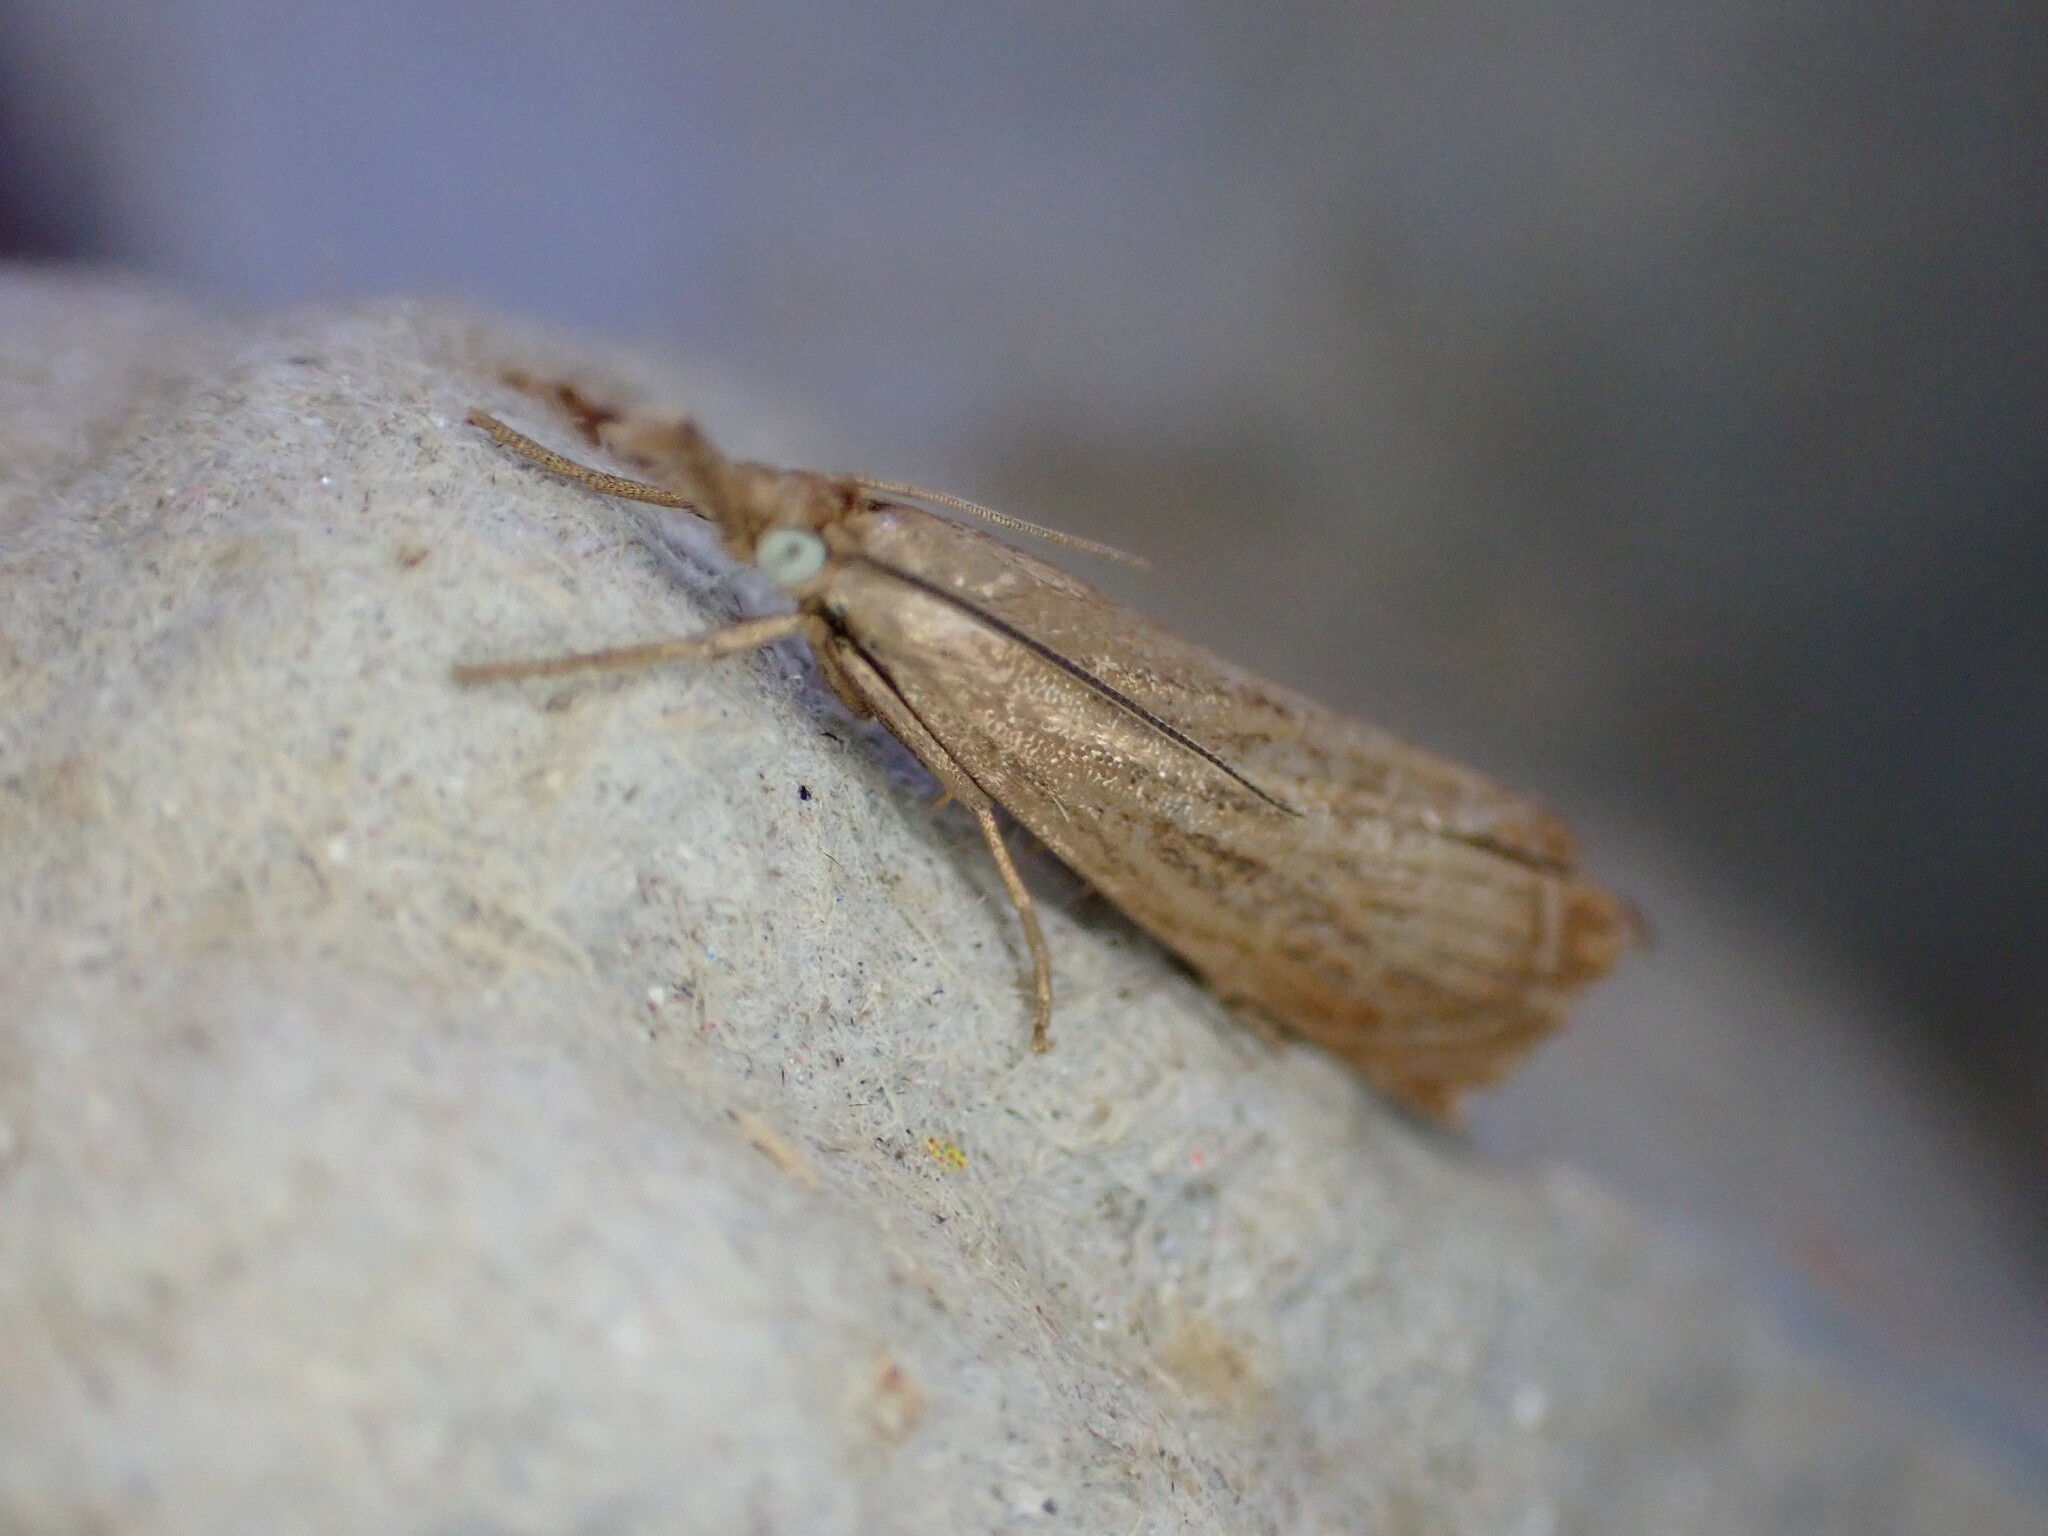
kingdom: Animalia
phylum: Arthropoda
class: Insecta
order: Lepidoptera
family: Crambidae
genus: Chrysoteuchia
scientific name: Chrysoteuchia culmella
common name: Garden grass-veneer
